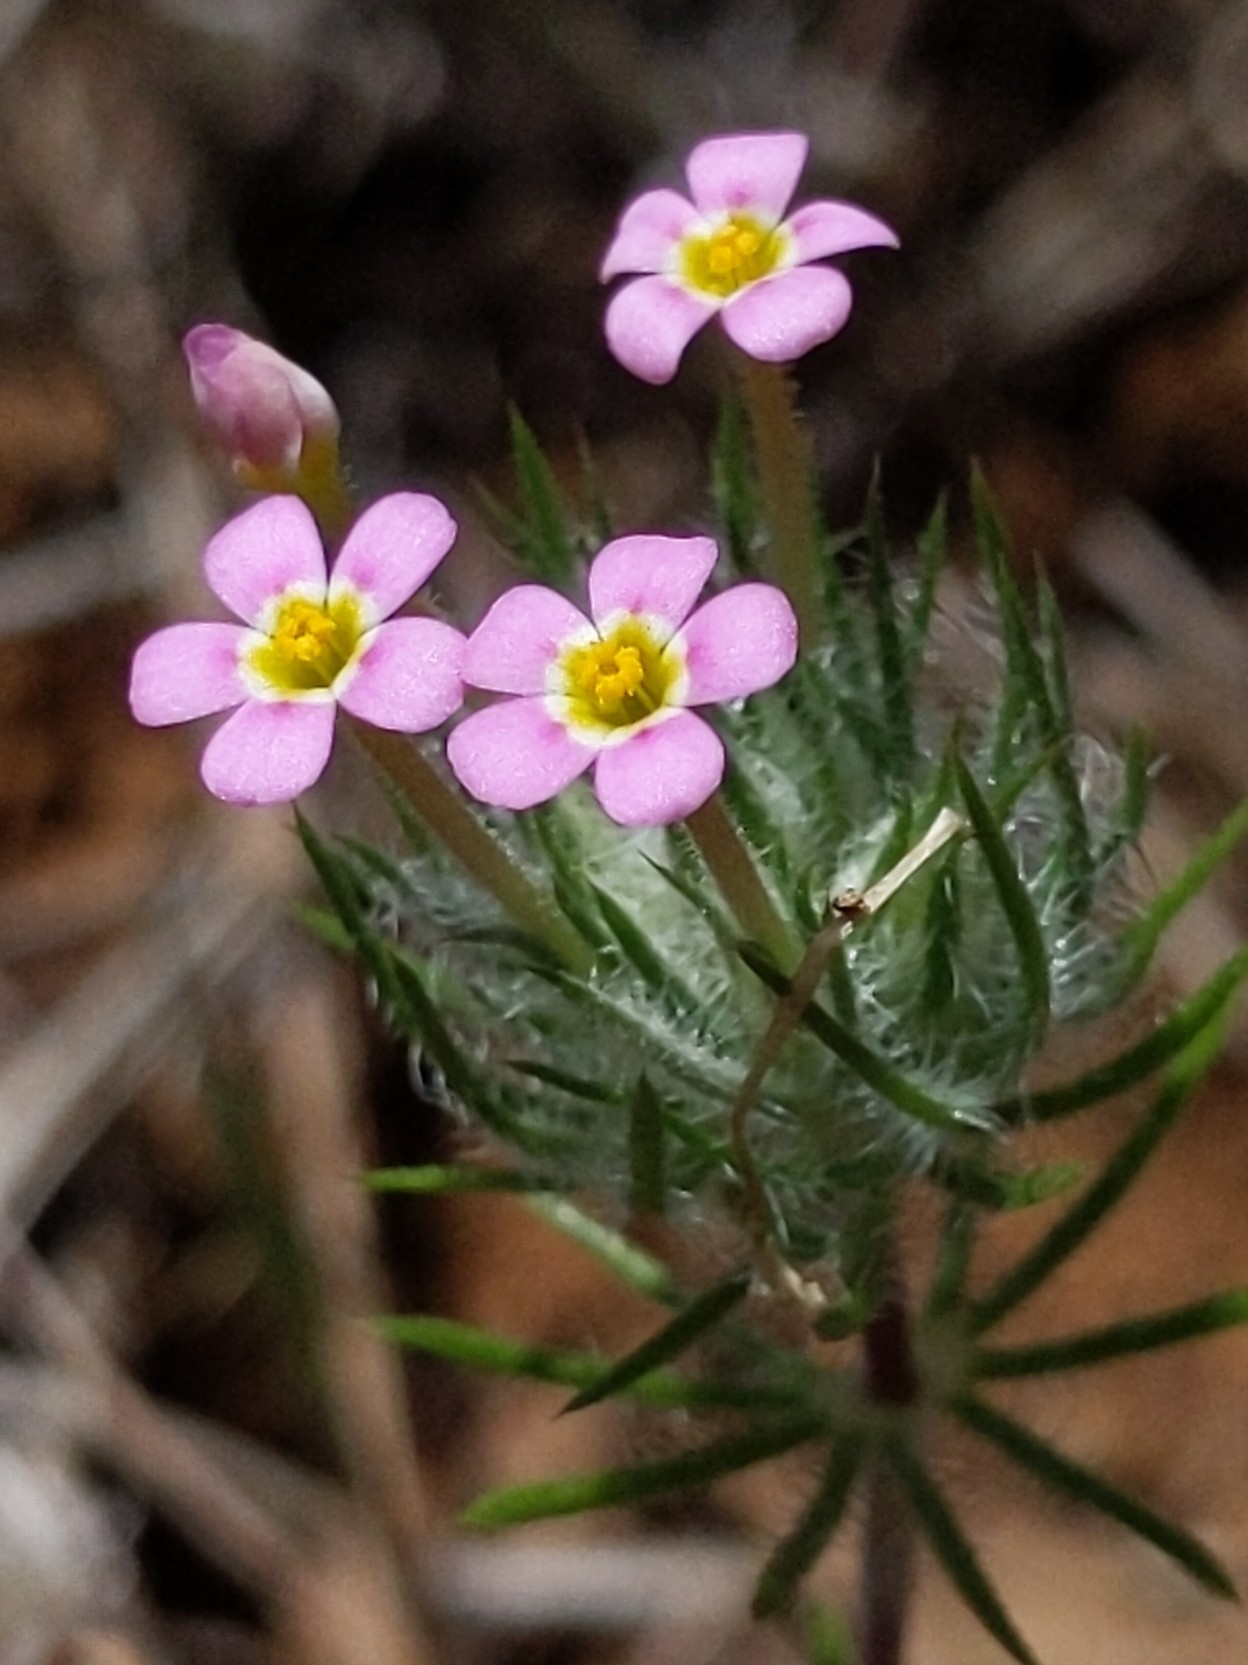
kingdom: Plantae
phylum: Tracheophyta
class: Magnoliopsida
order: Ericales
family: Polemoniaceae
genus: Leptosiphon
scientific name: Leptosiphon ciliatus
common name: Whiskerbrush
